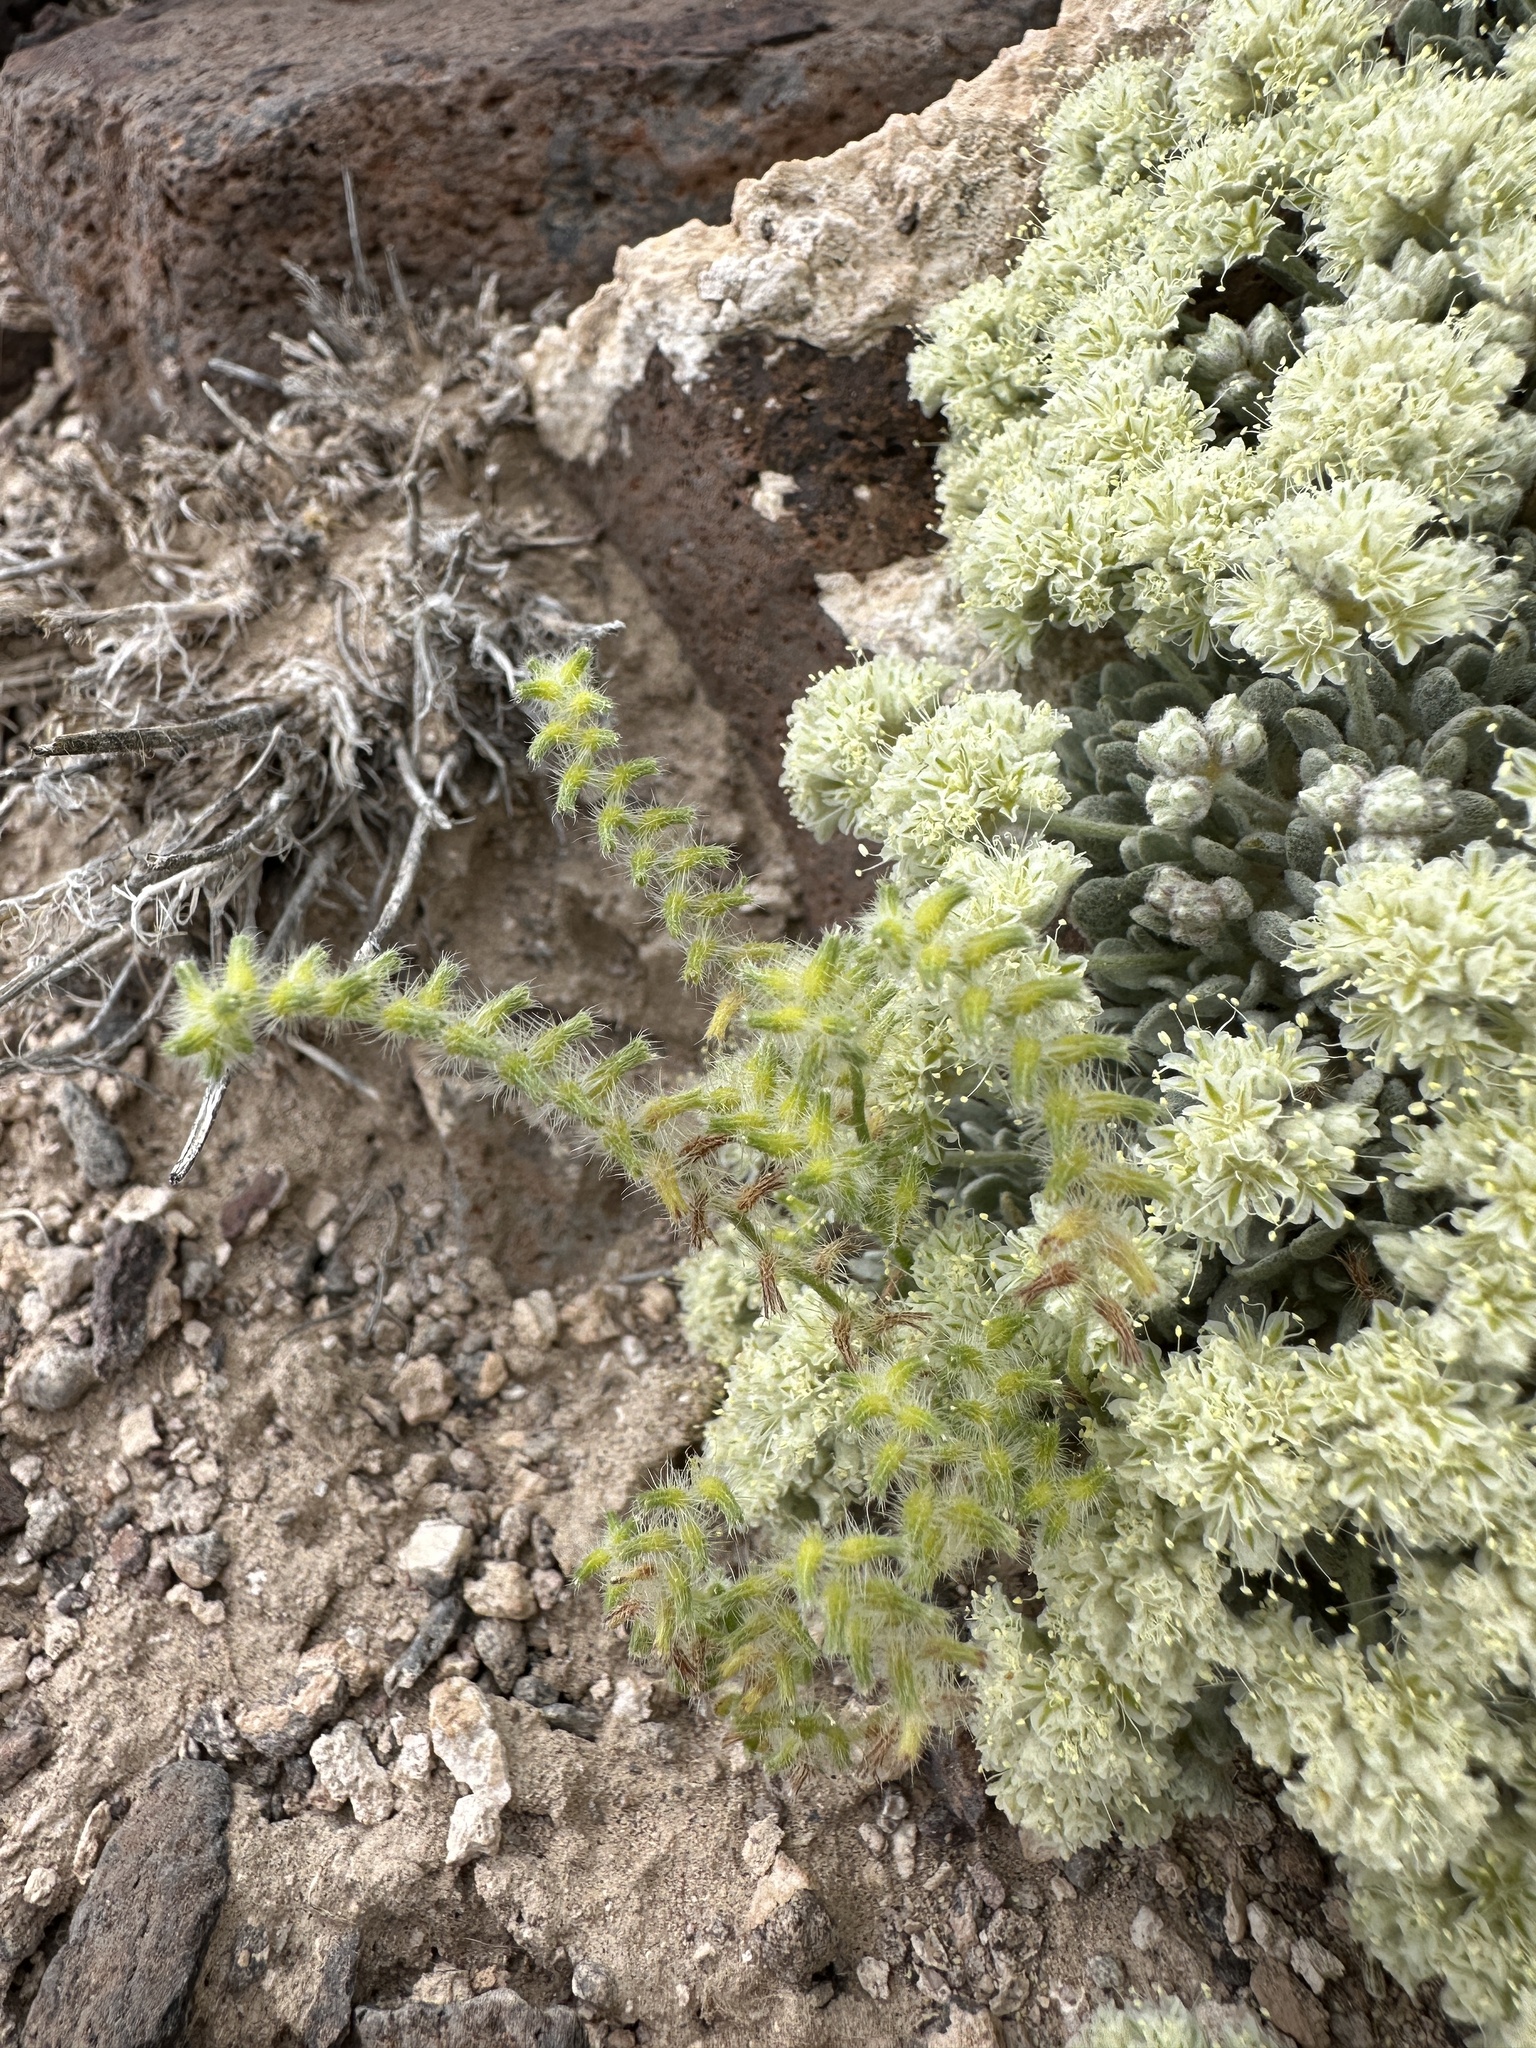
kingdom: Plantae
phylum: Tracheophyta
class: Magnoliopsida
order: Boraginales
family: Boraginaceae
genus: Cryptantha
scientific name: Cryptantha recurvata
